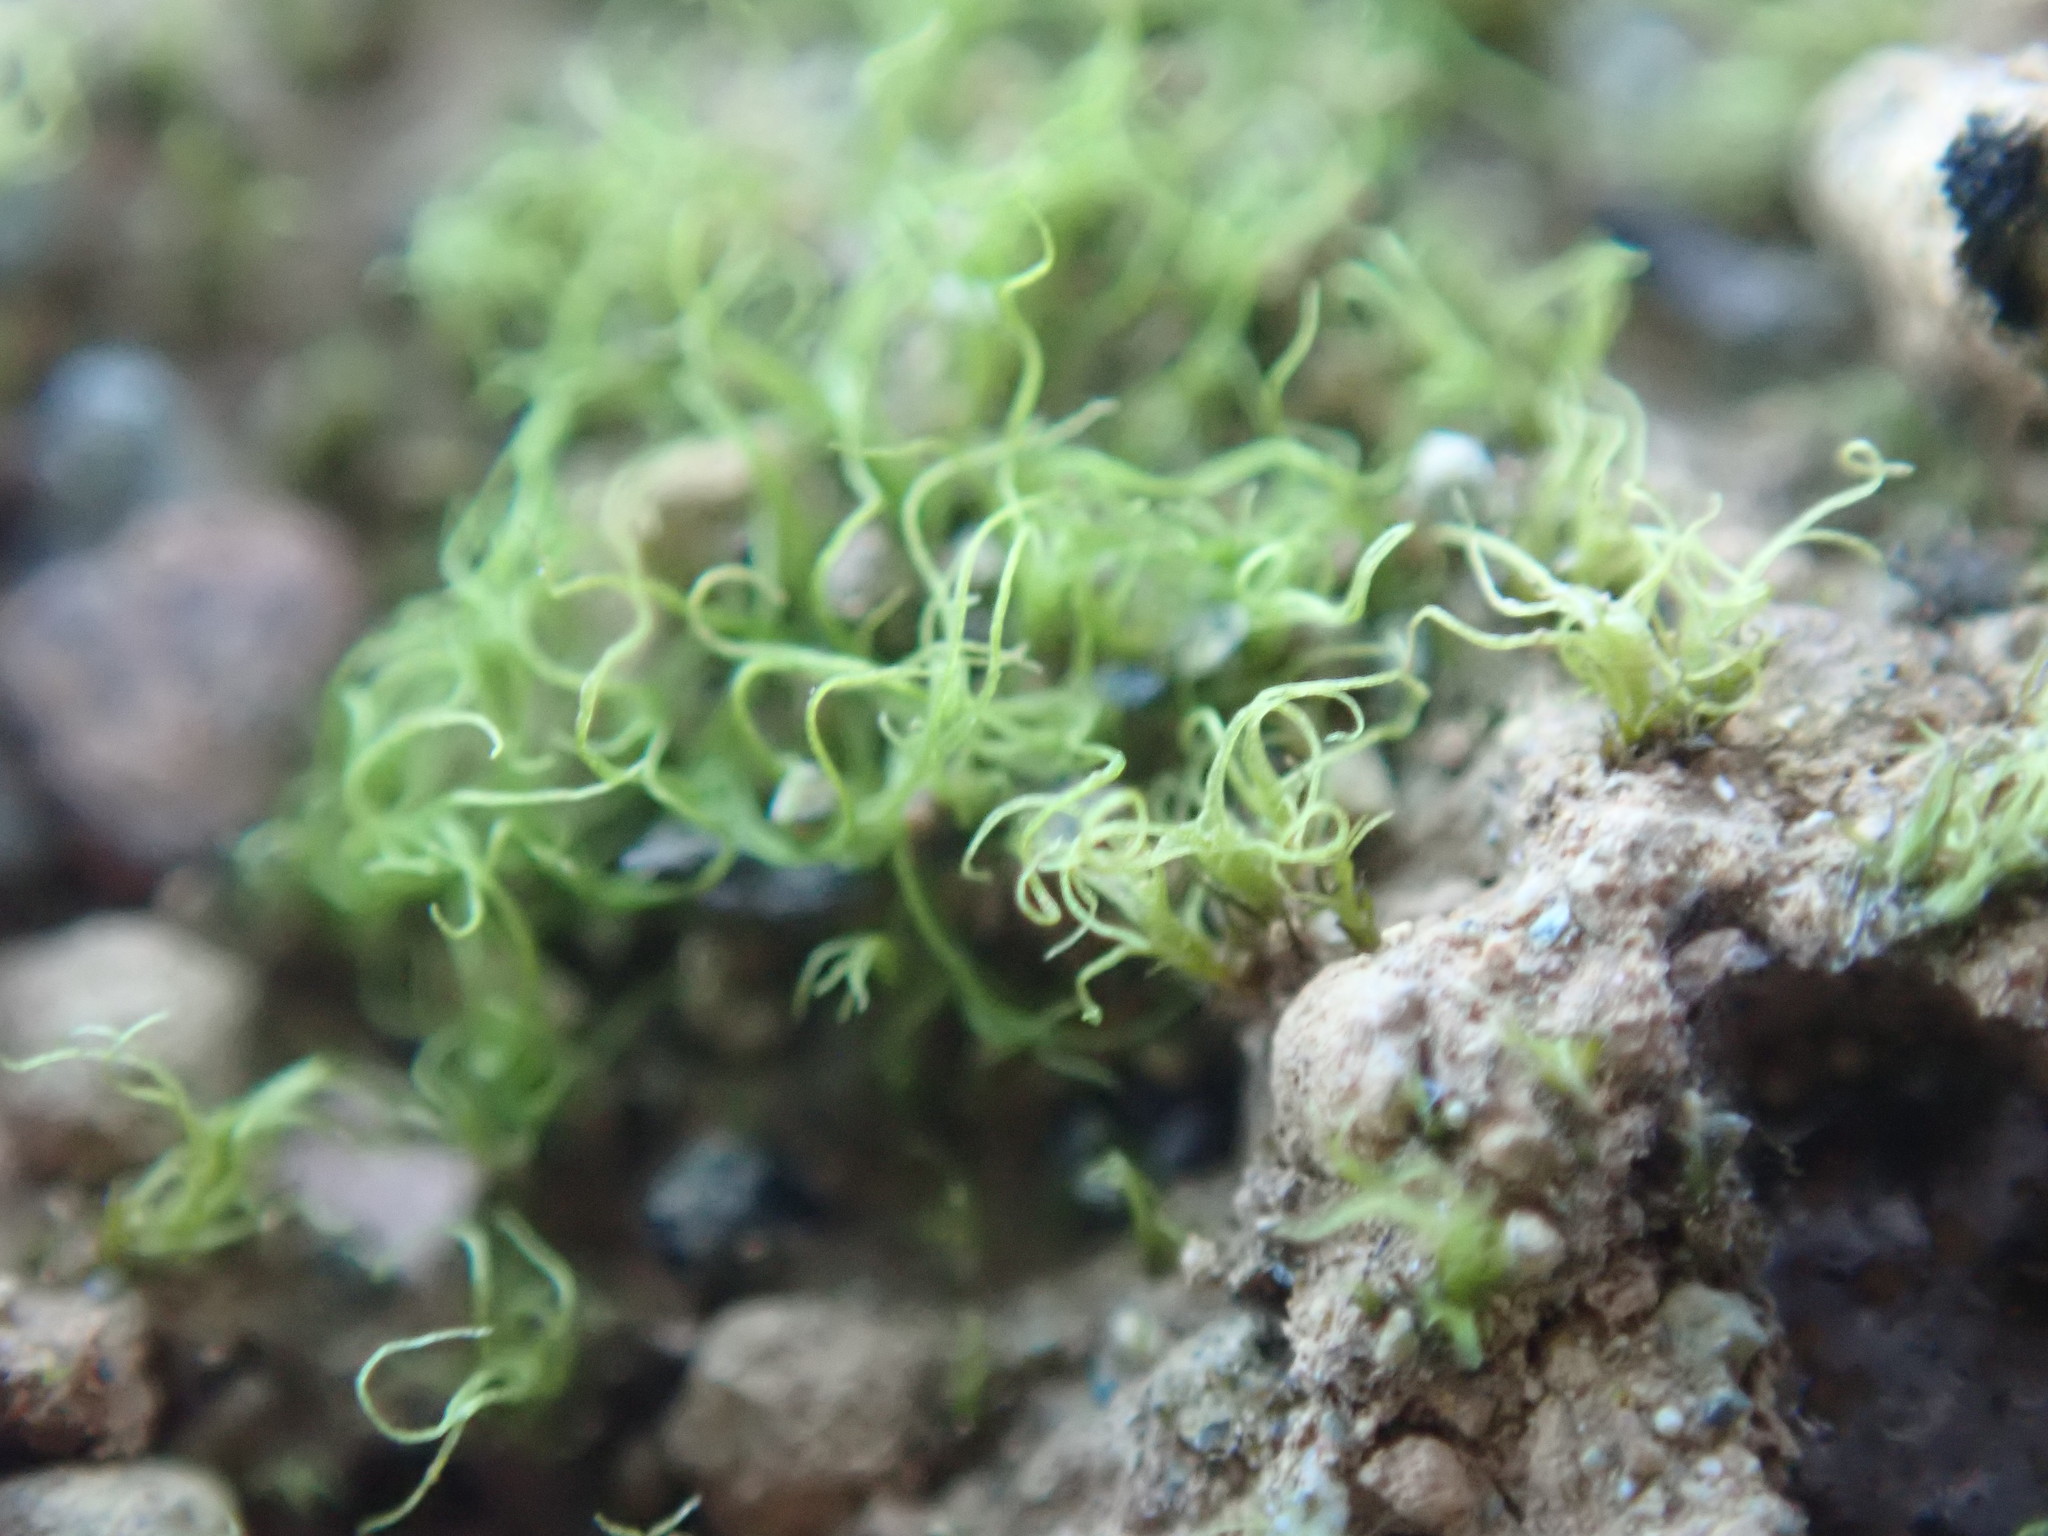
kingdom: Plantae
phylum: Bryophyta
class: Bryopsida
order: Dicranales
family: Ditrichaceae
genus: Trichodon
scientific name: Trichodon cylindricus
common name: Cylindric hairy-teeth moss
